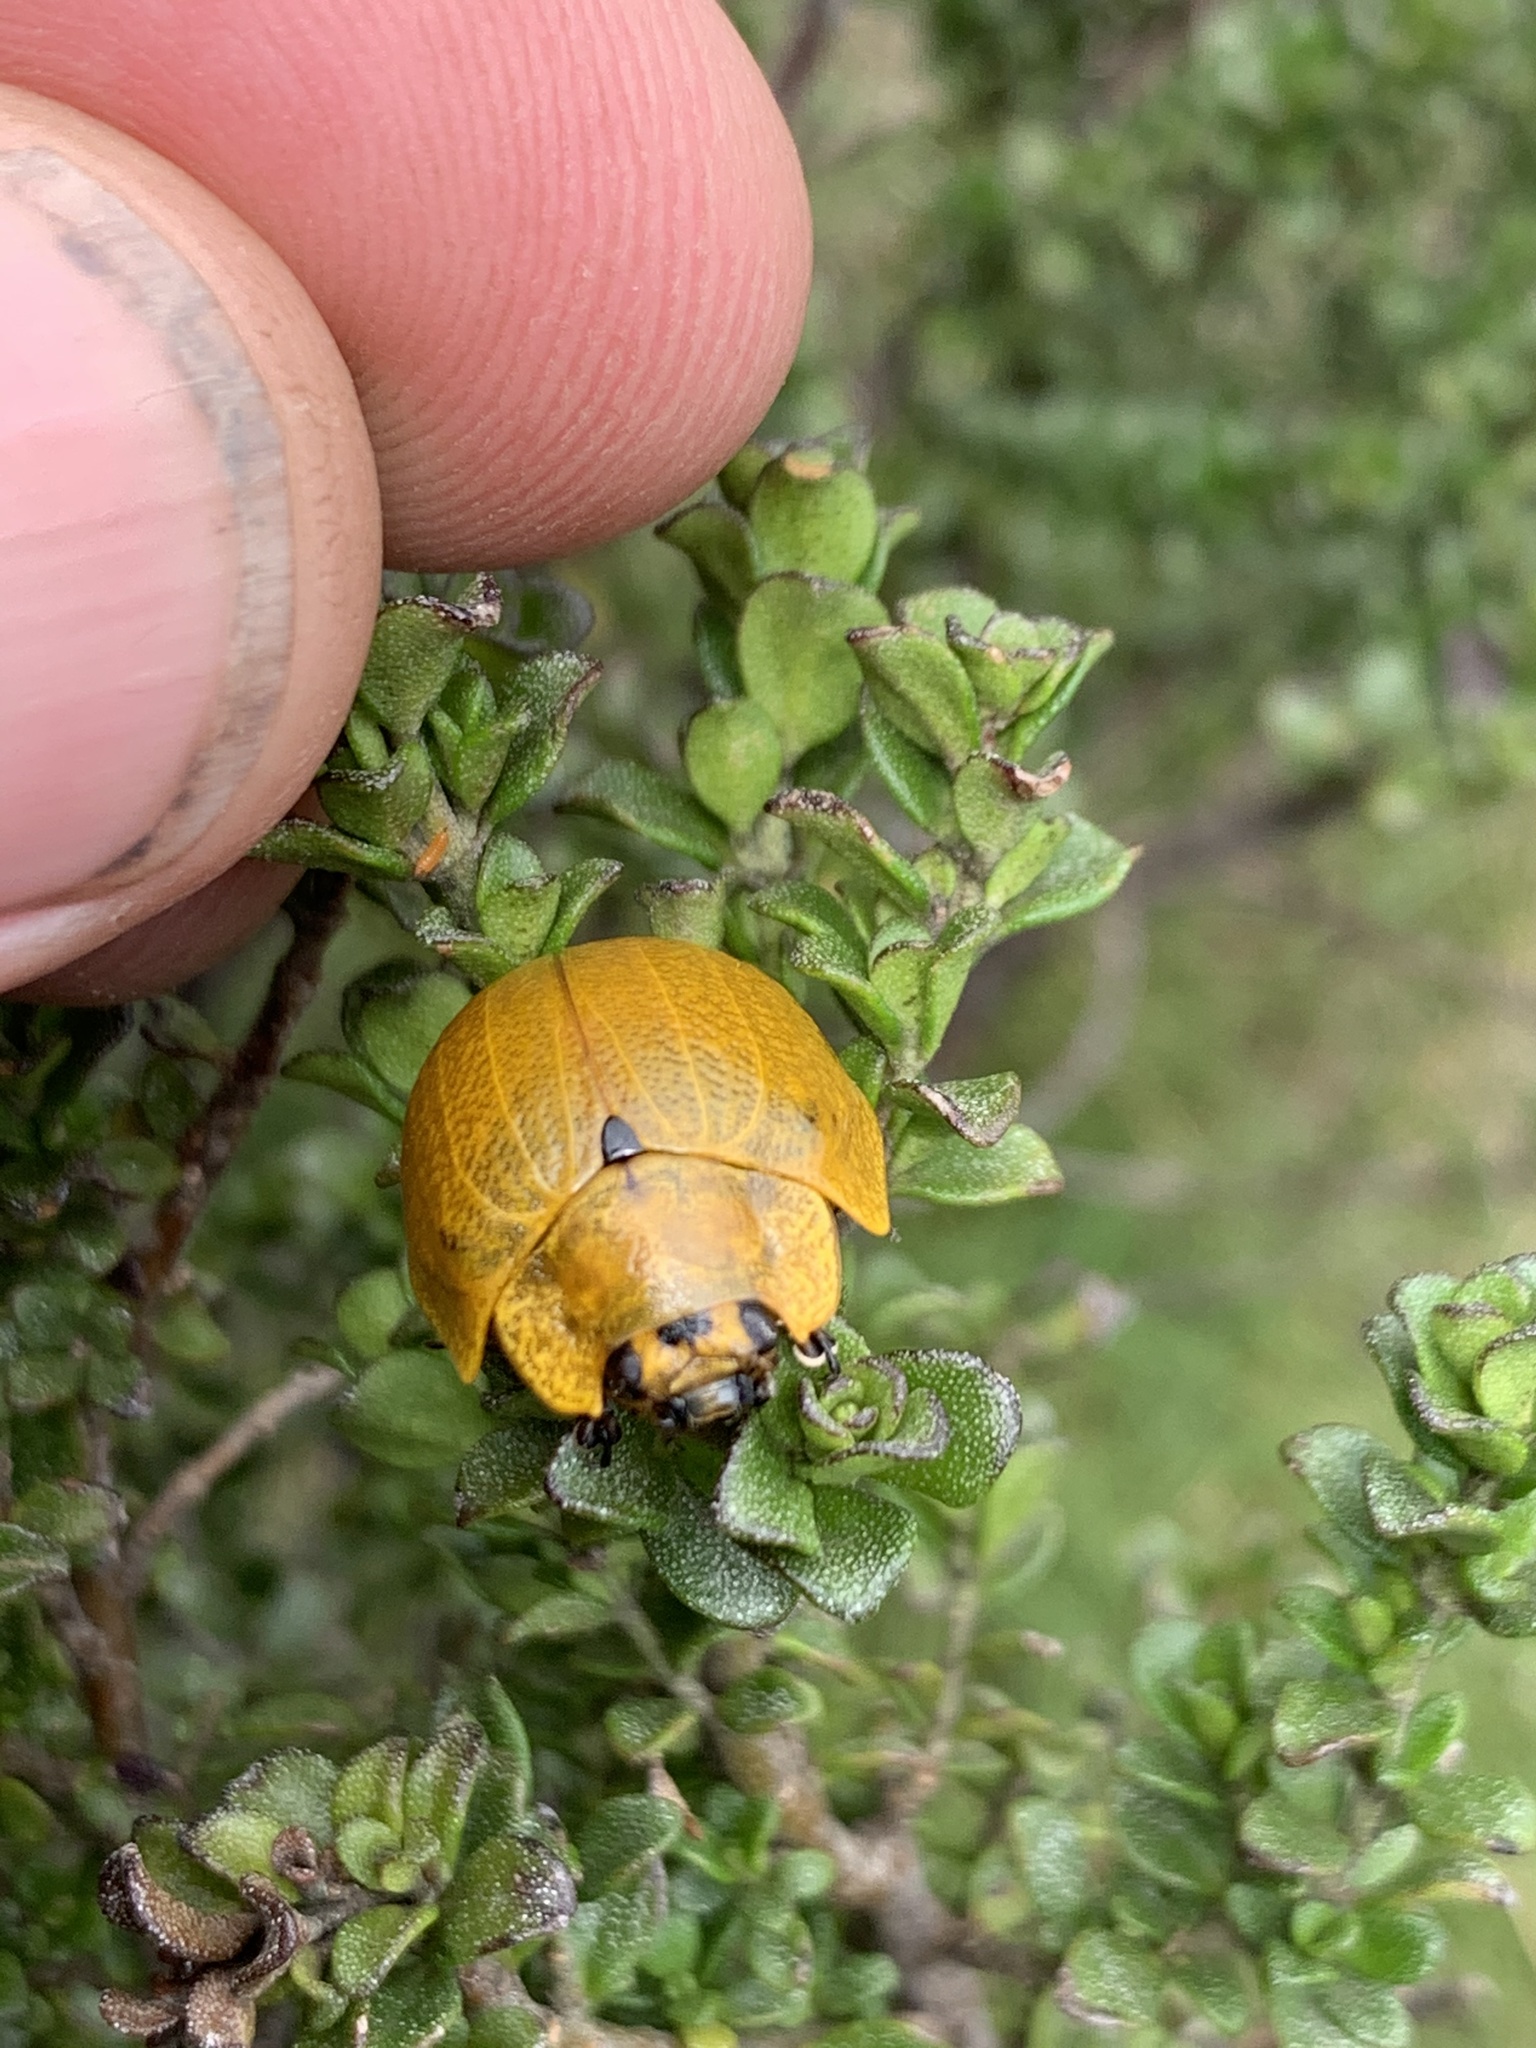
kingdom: Animalia
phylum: Arthropoda
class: Insecta
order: Coleoptera
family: Chrysomelidae
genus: Paropsis
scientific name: Paropsis
